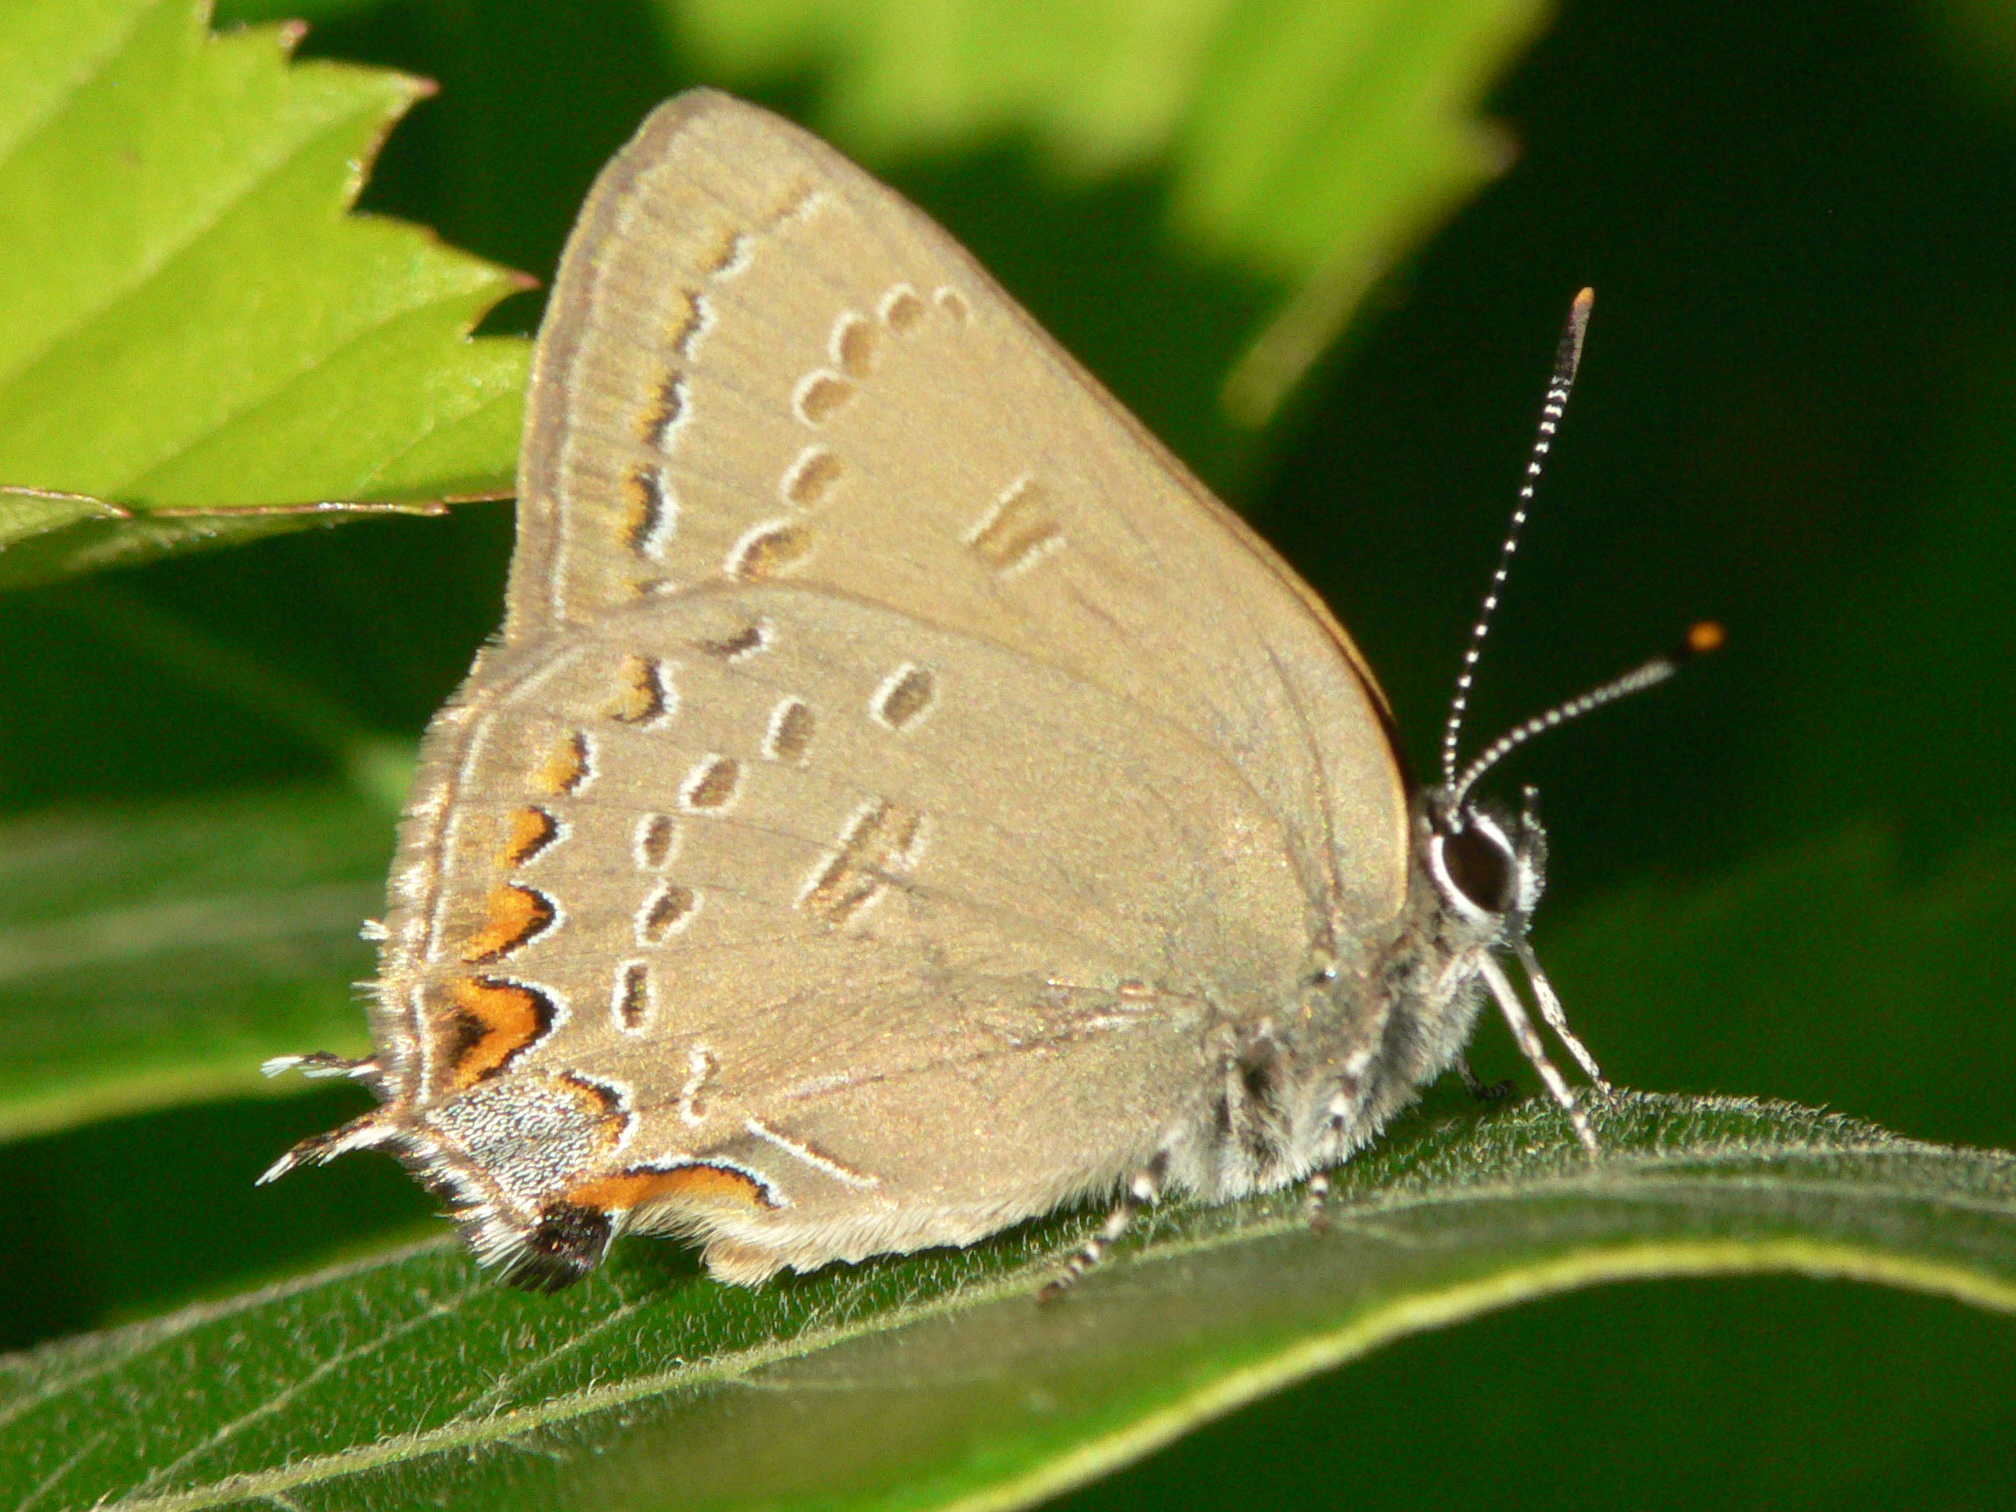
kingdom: Animalia
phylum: Arthropoda
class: Insecta
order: Lepidoptera
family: Lycaenidae
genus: Satyrium
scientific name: Satyrium edwardsii
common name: Edwards' hairstreak
